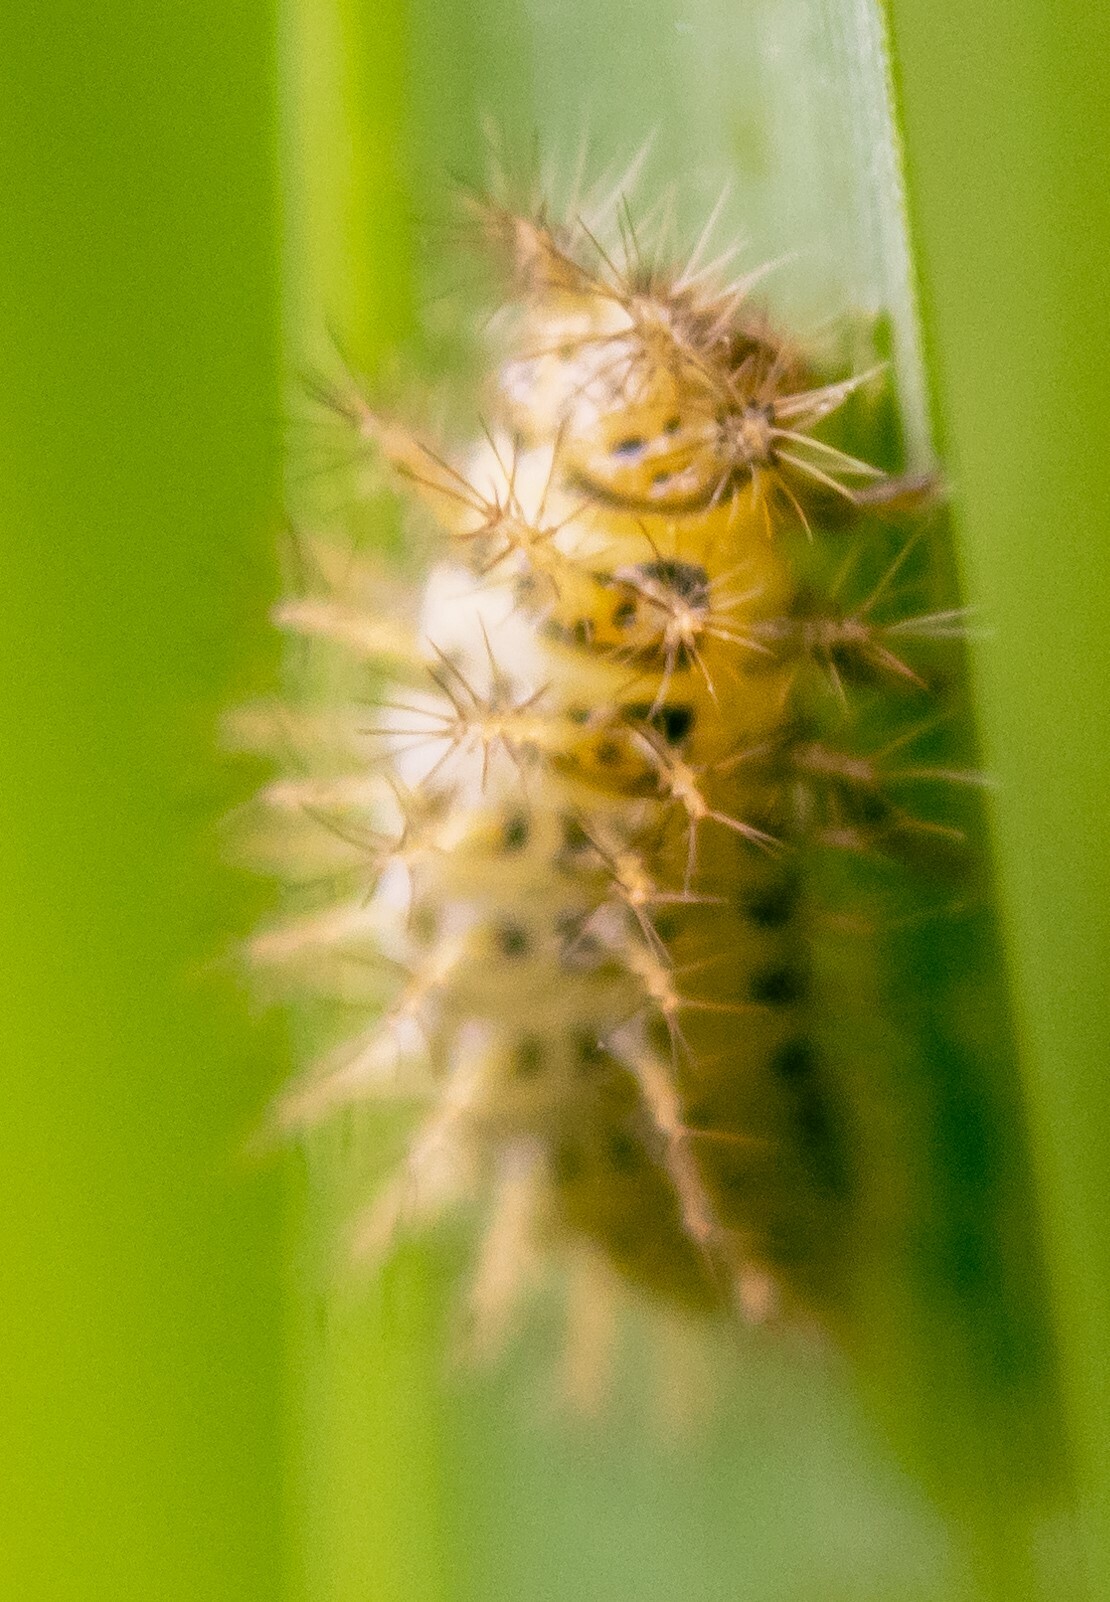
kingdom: Animalia
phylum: Arthropoda
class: Insecta
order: Coleoptera
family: Coccinellidae
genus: Subcoccinella
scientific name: Subcoccinella vigintiquatuorpunctata
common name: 24-spot ladybird
